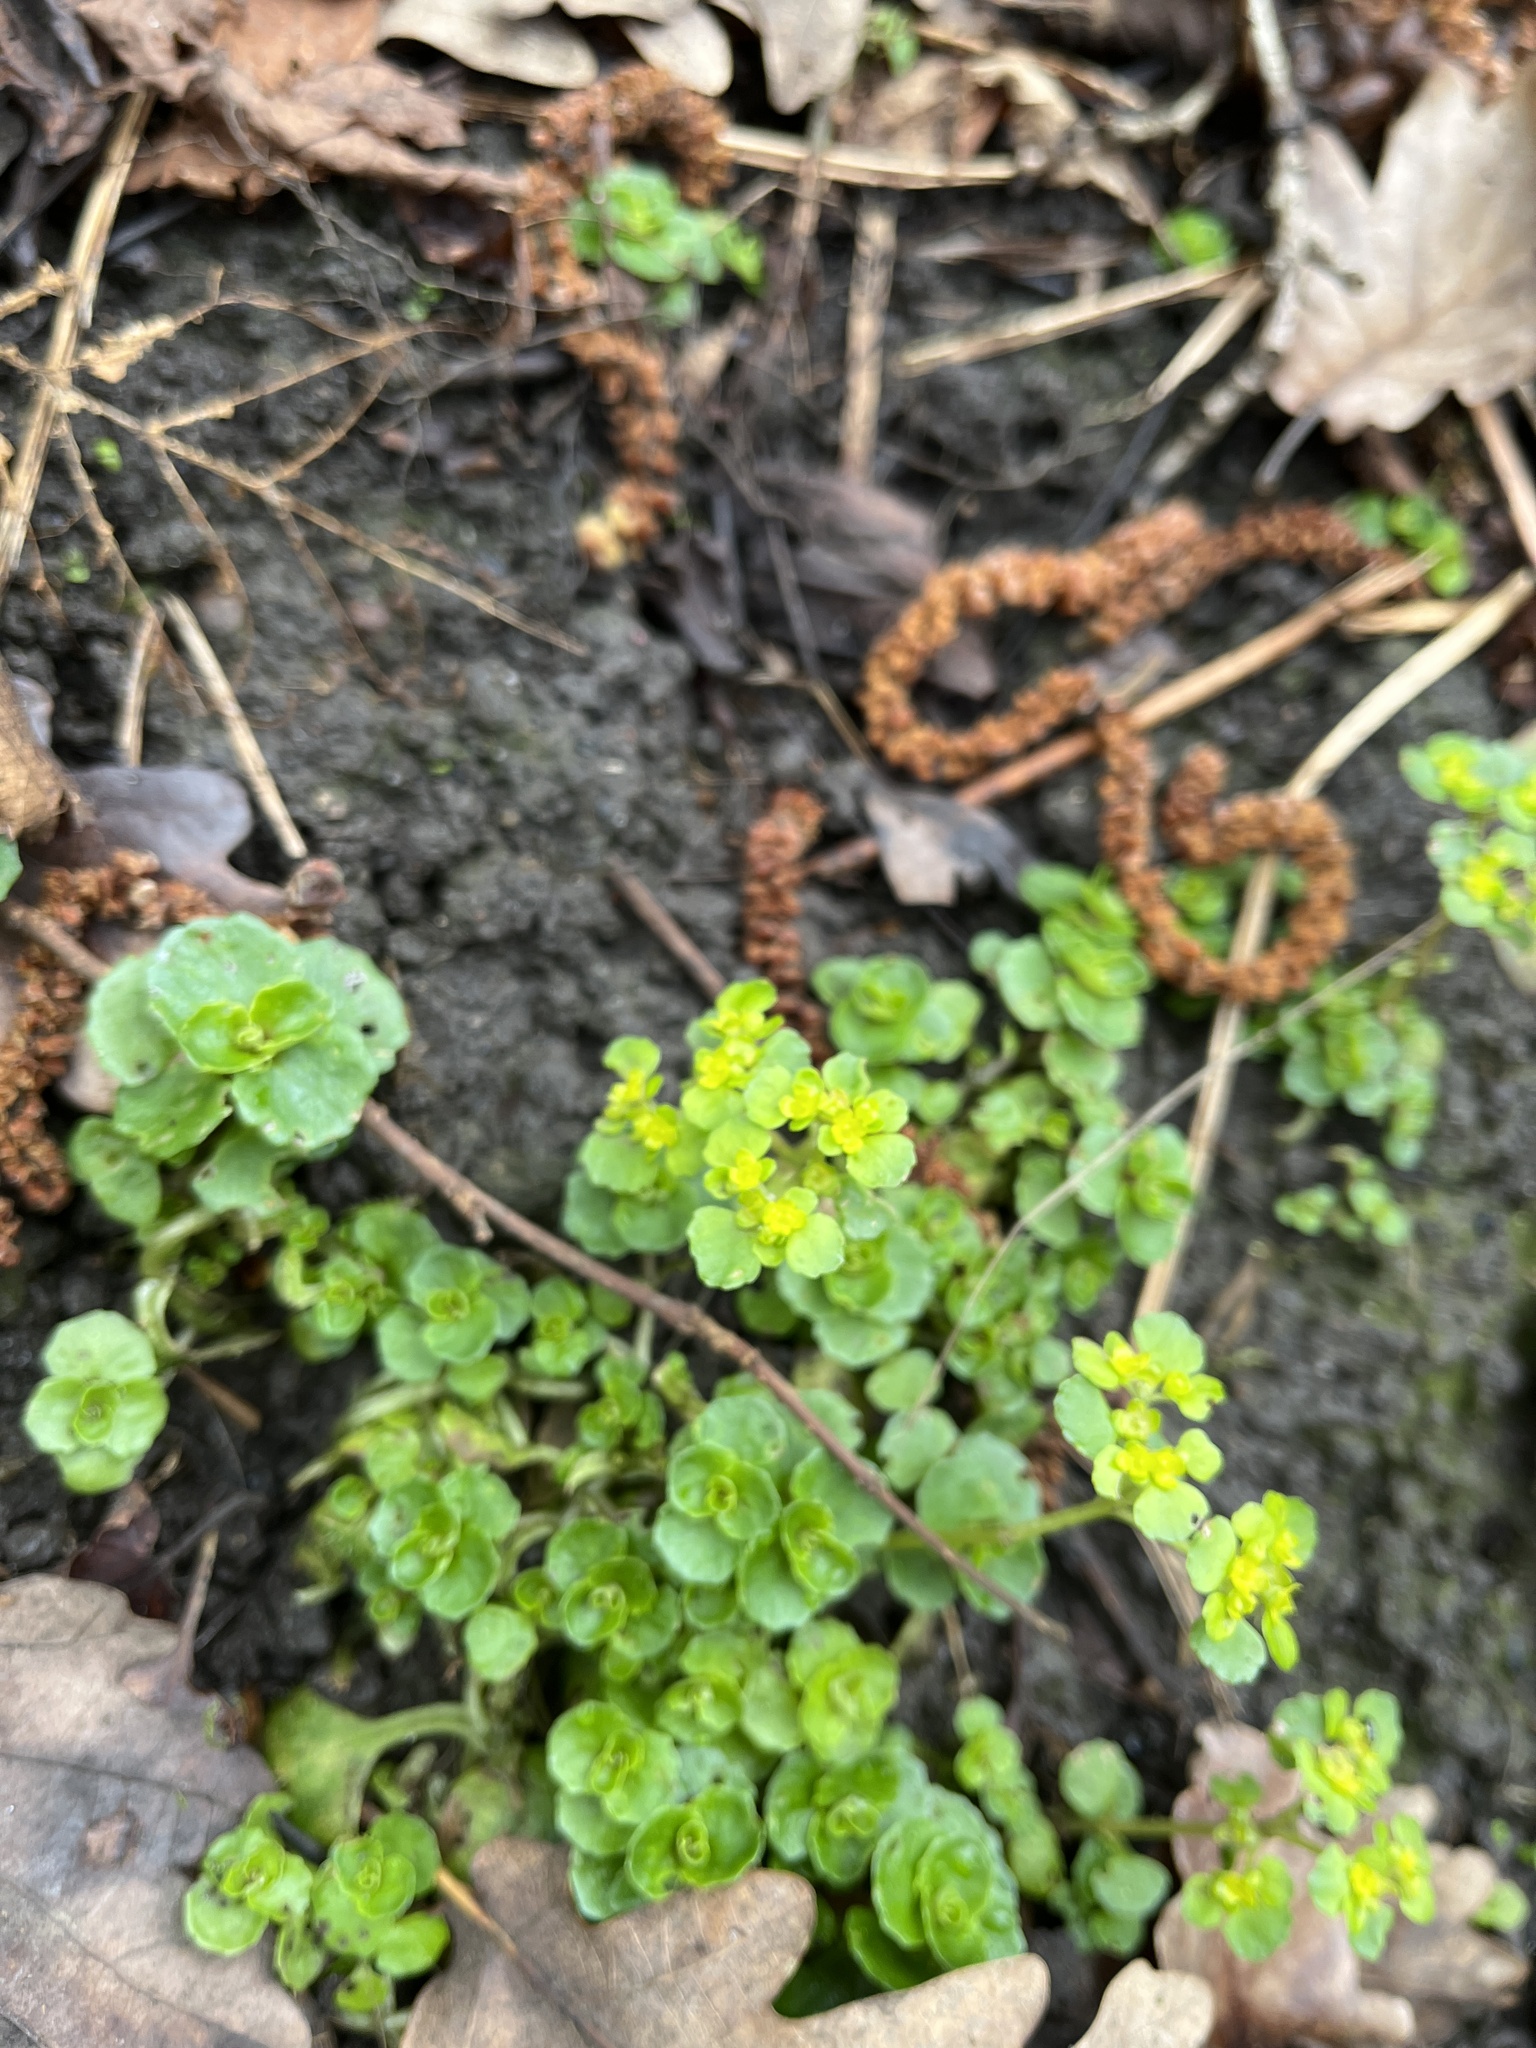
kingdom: Plantae
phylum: Tracheophyta
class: Magnoliopsida
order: Saxifragales
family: Saxifragaceae
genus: Chrysosplenium
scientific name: Chrysosplenium oppositifolium
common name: Opposite-leaved golden-saxifrage
